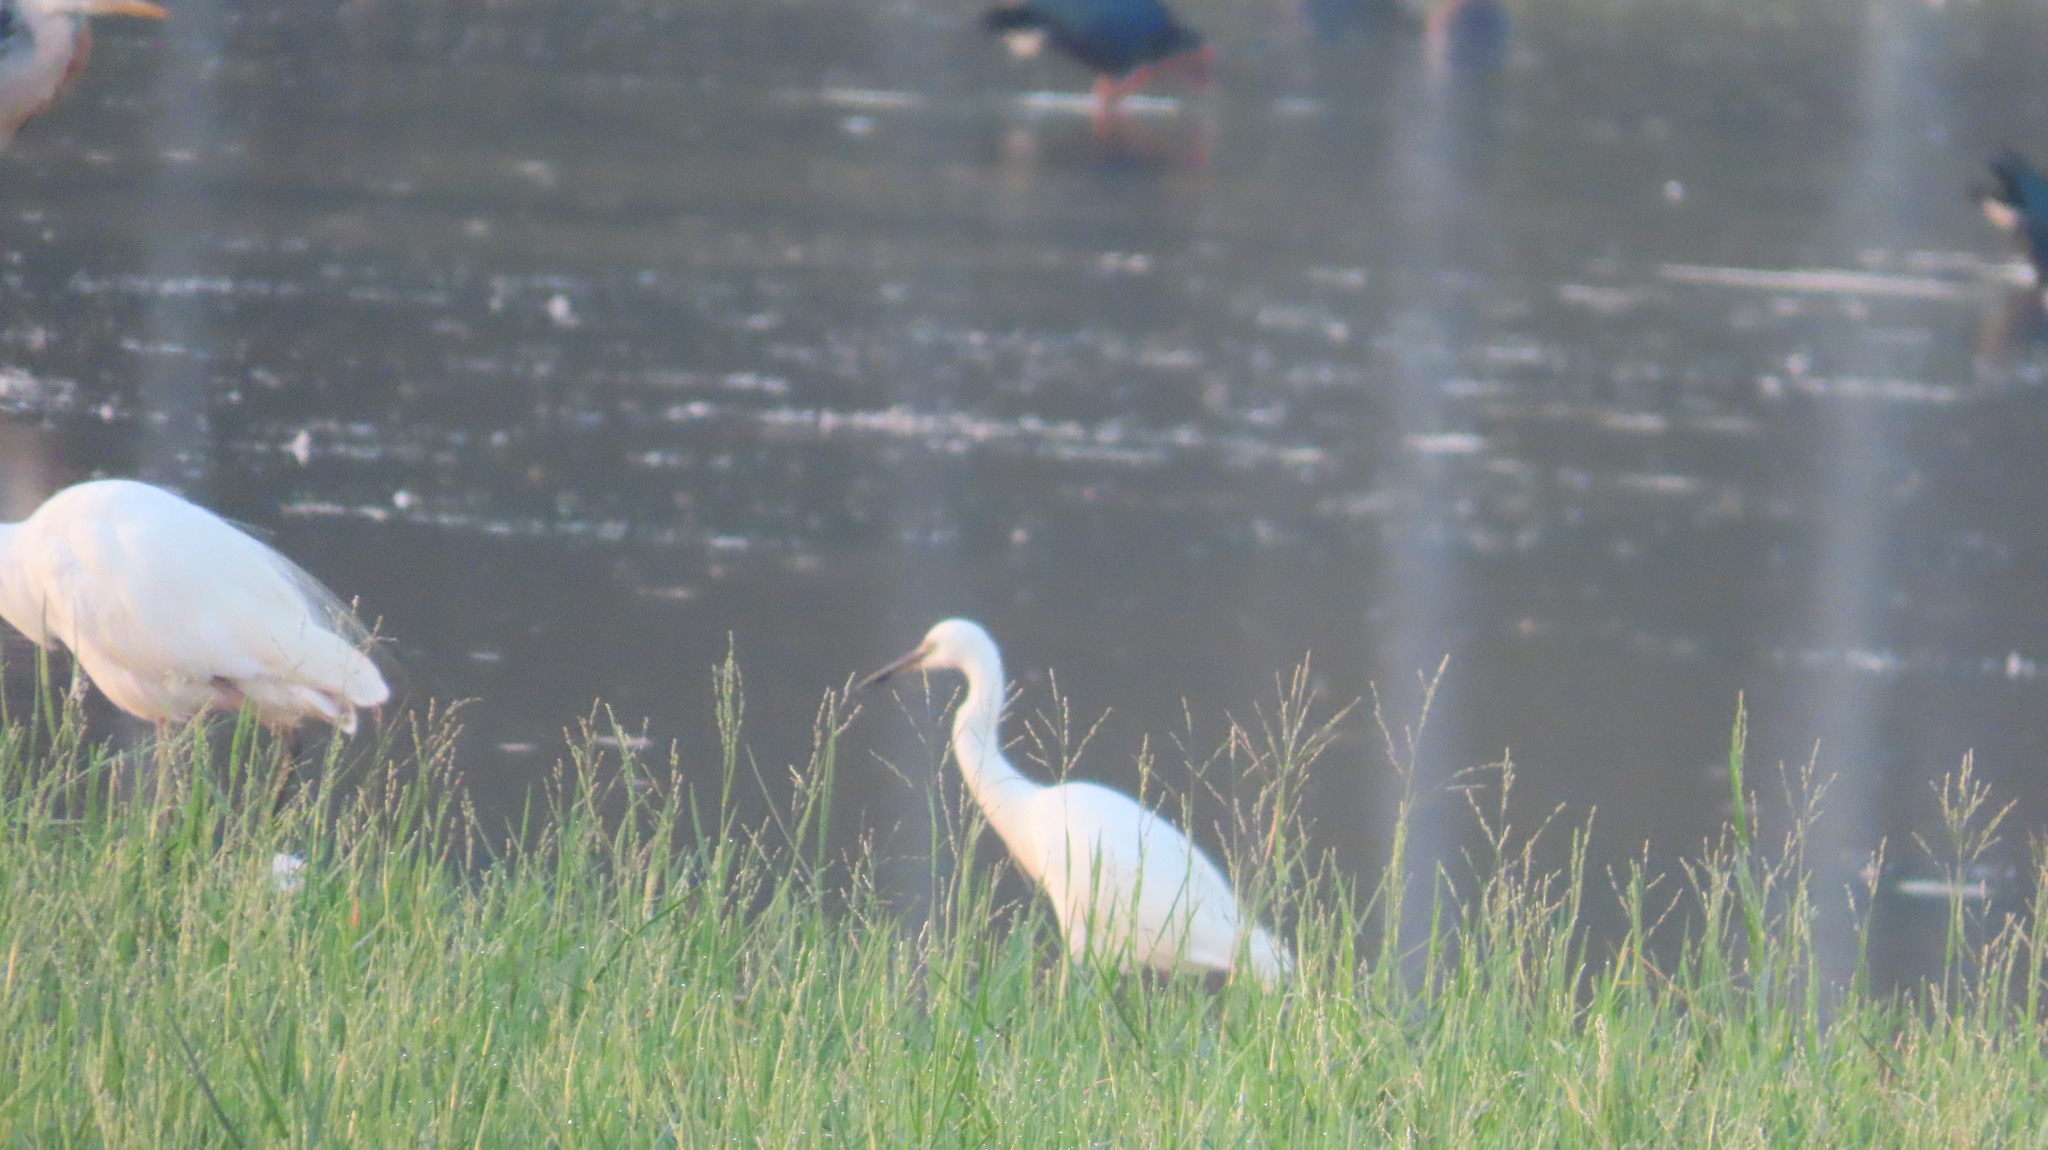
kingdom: Animalia
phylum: Chordata
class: Aves
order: Pelecaniformes
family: Ardeidae
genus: Egretta
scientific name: Egretta garzetta
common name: Little egret
